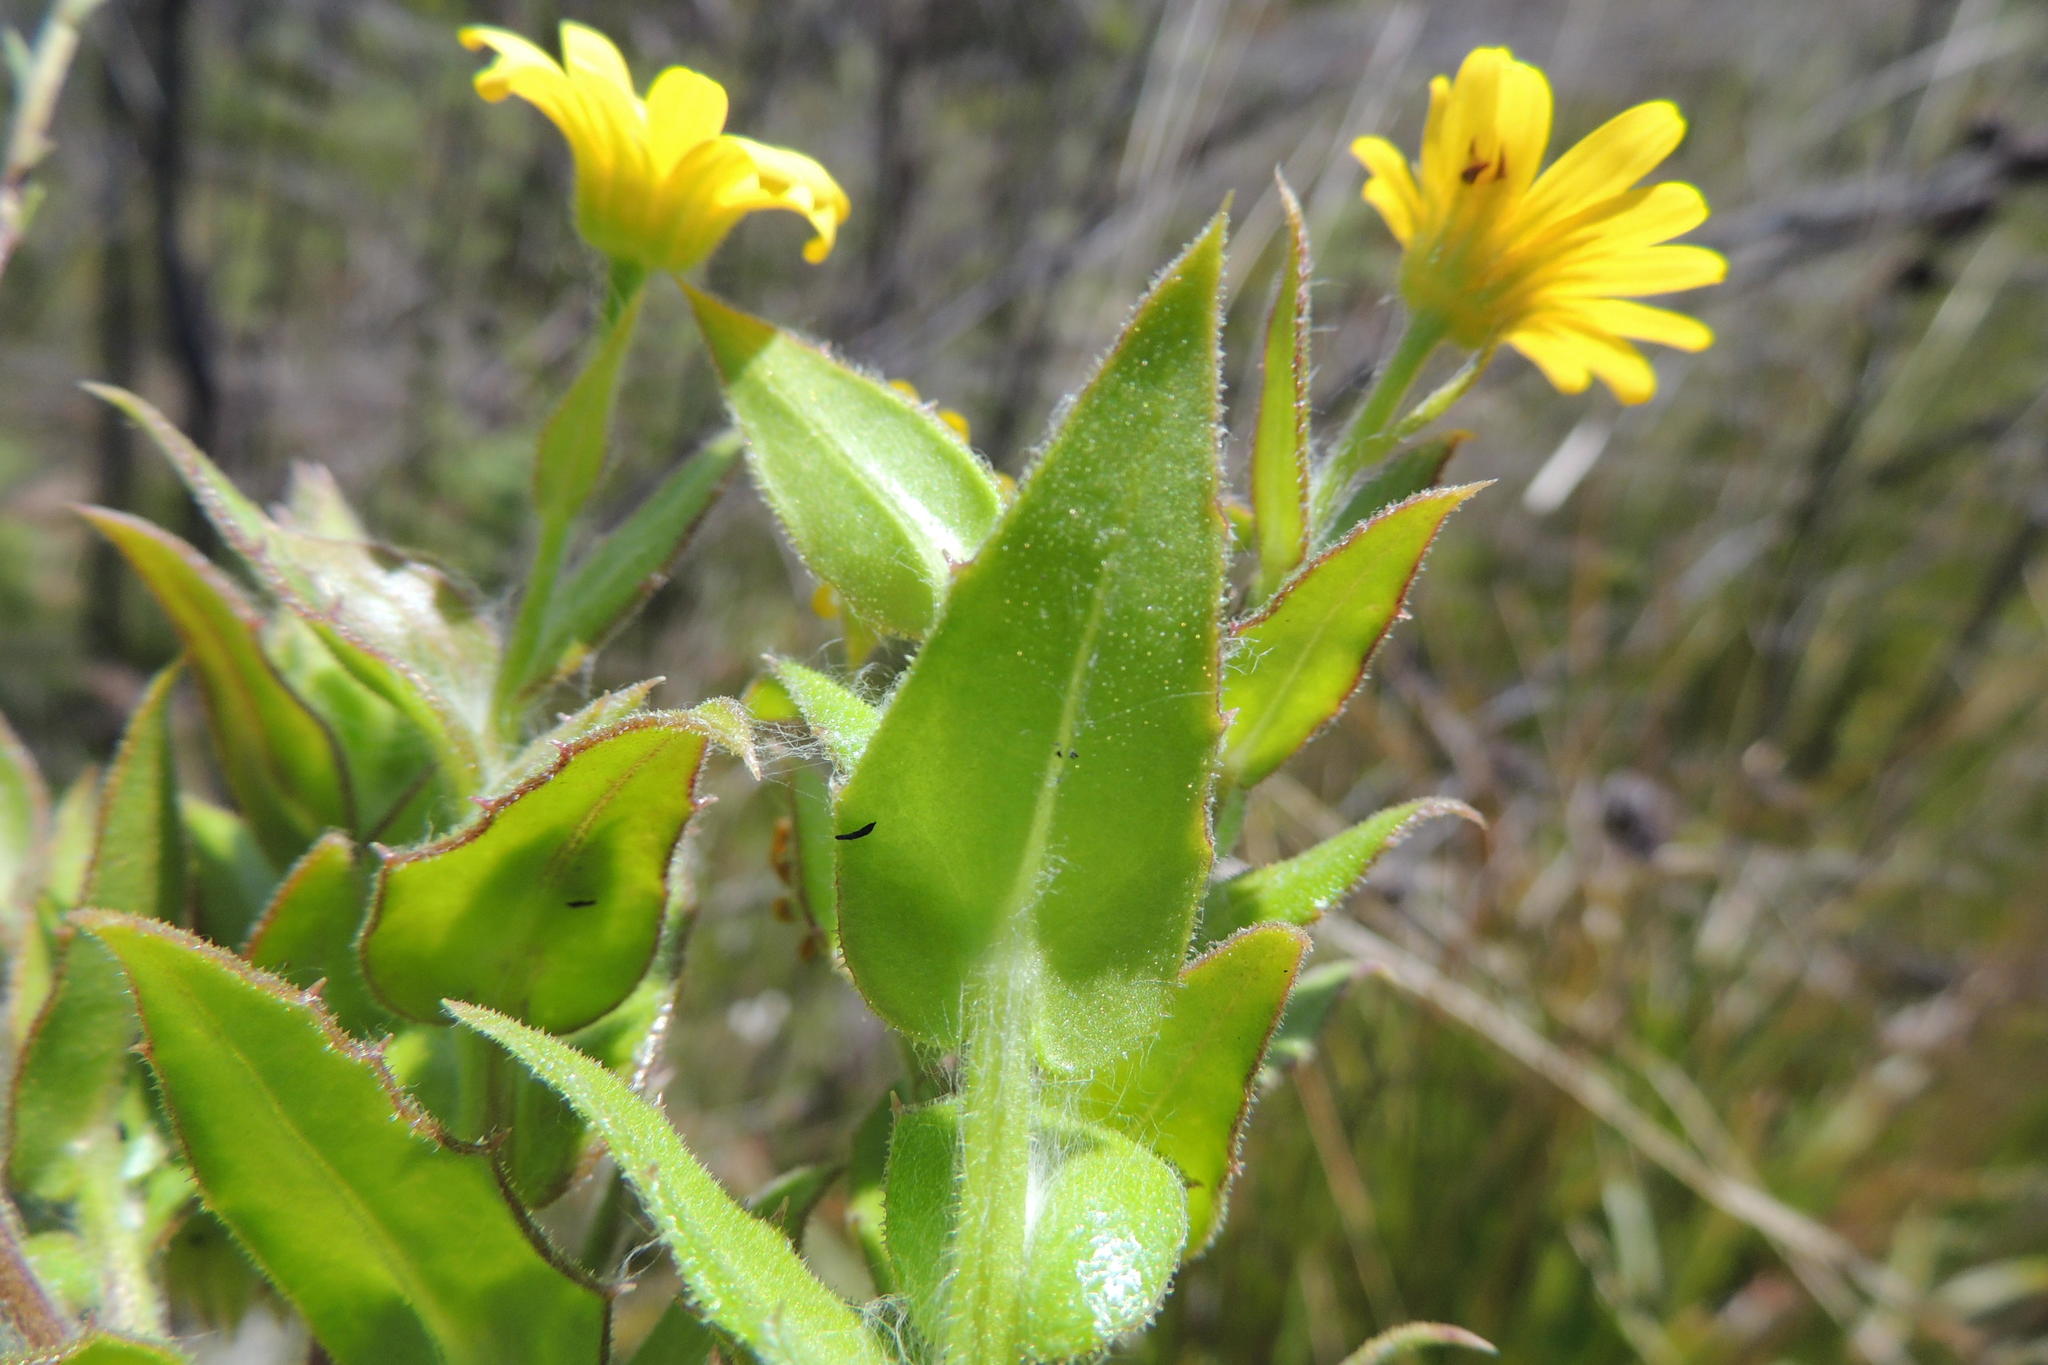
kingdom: Plantae
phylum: Tracheophyta
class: Magnoliopsida
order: Asterales
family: Asteraceae
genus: Osteospermum
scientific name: Osteospermum ilicifolium
